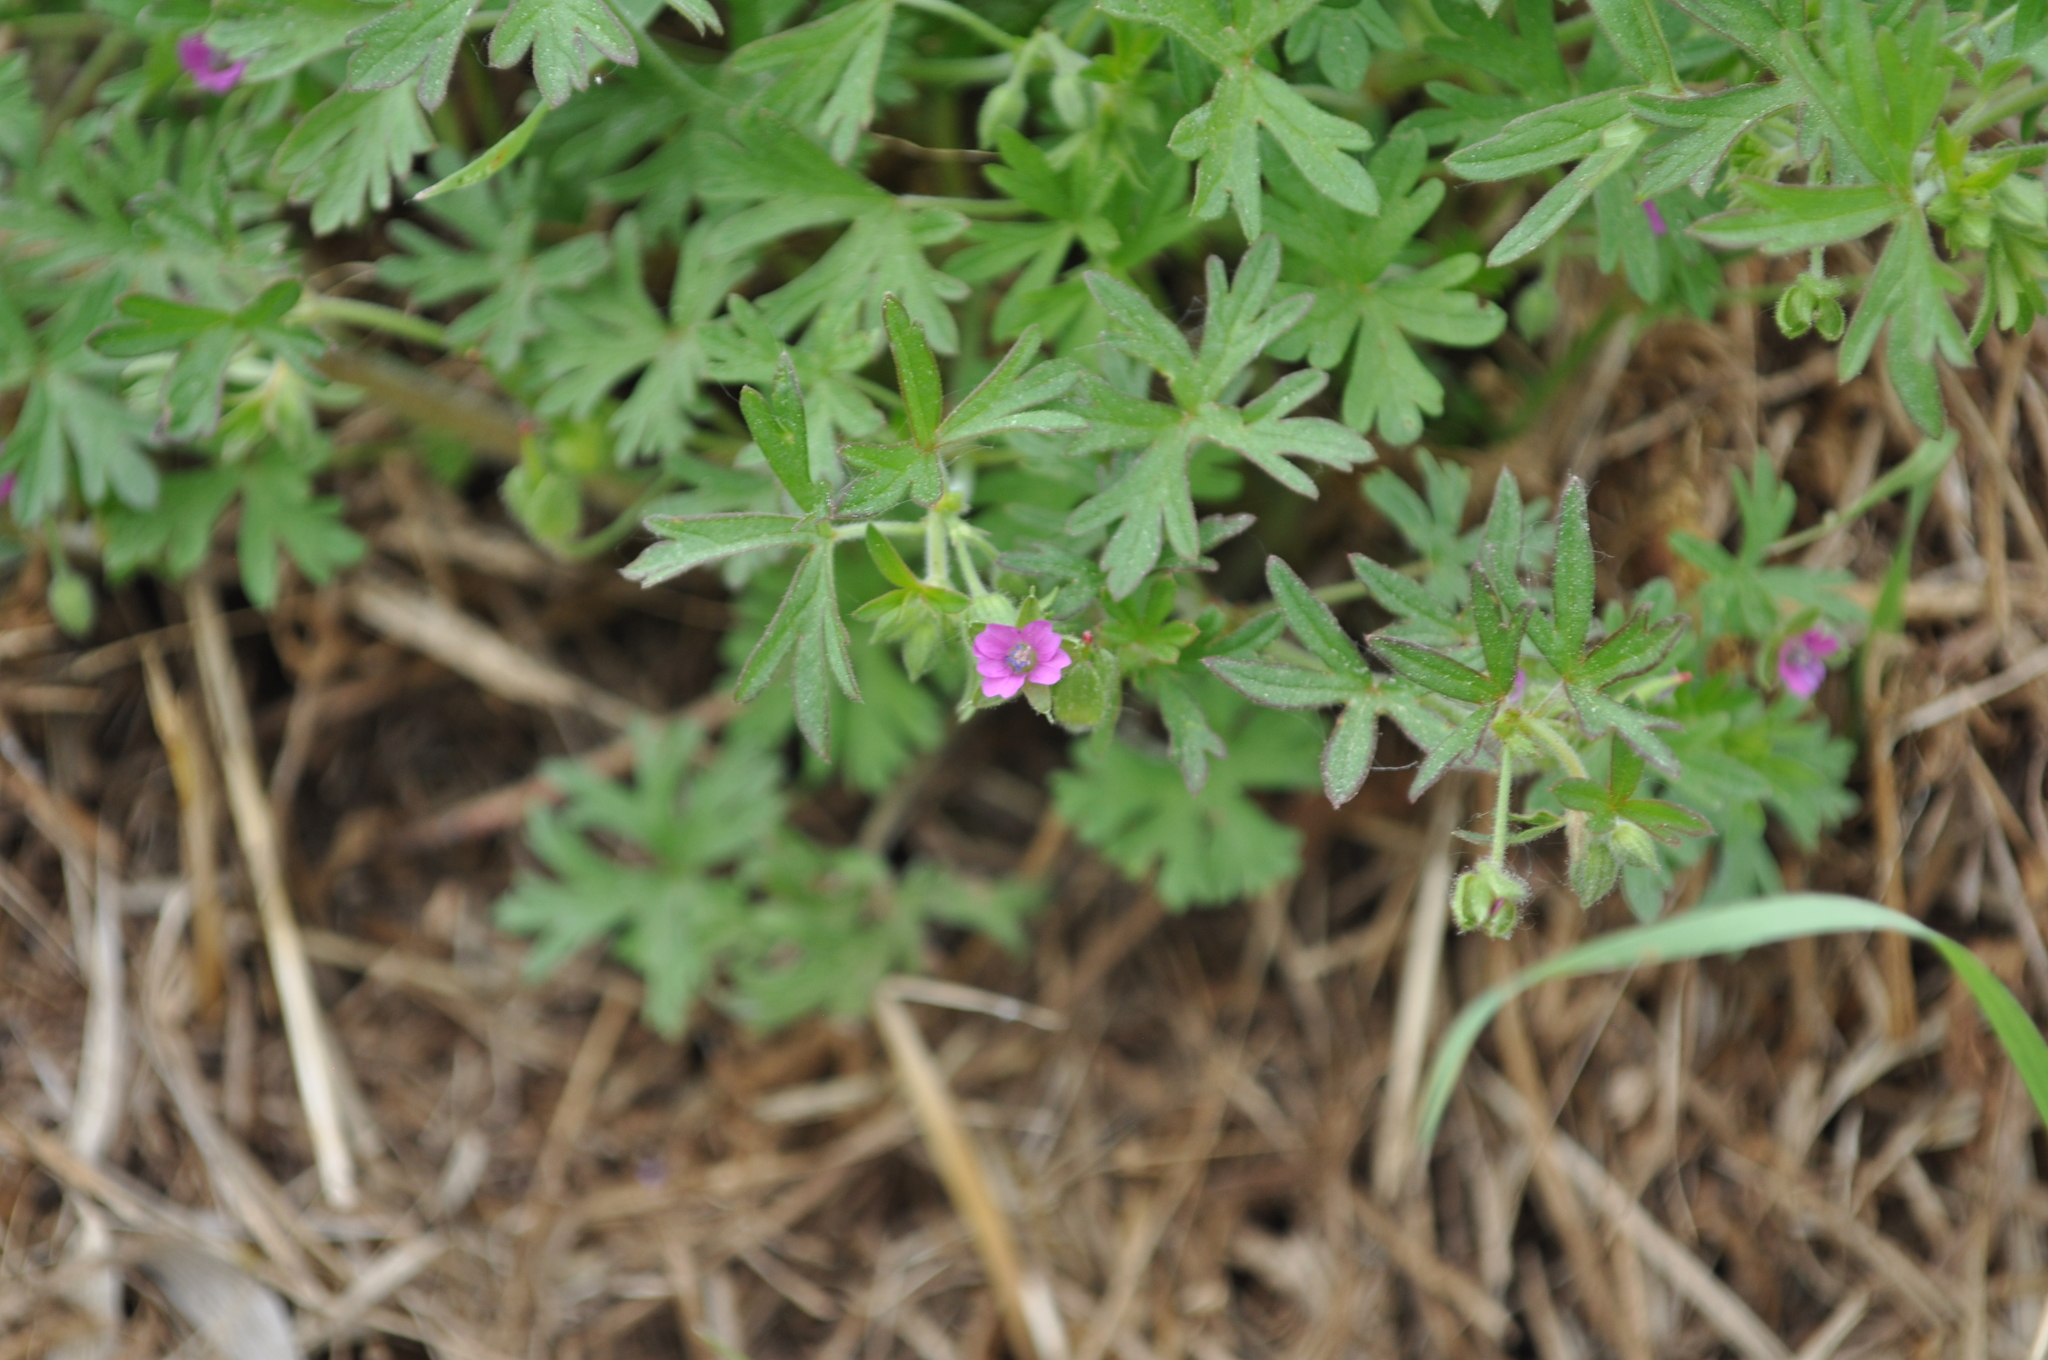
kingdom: Plantae
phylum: Tracheophyta
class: Magnoliopsida
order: Geraniales
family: Geraniaceae
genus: Geranium
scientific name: Geranium dissectum
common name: Cut-leaved crane's-bill
